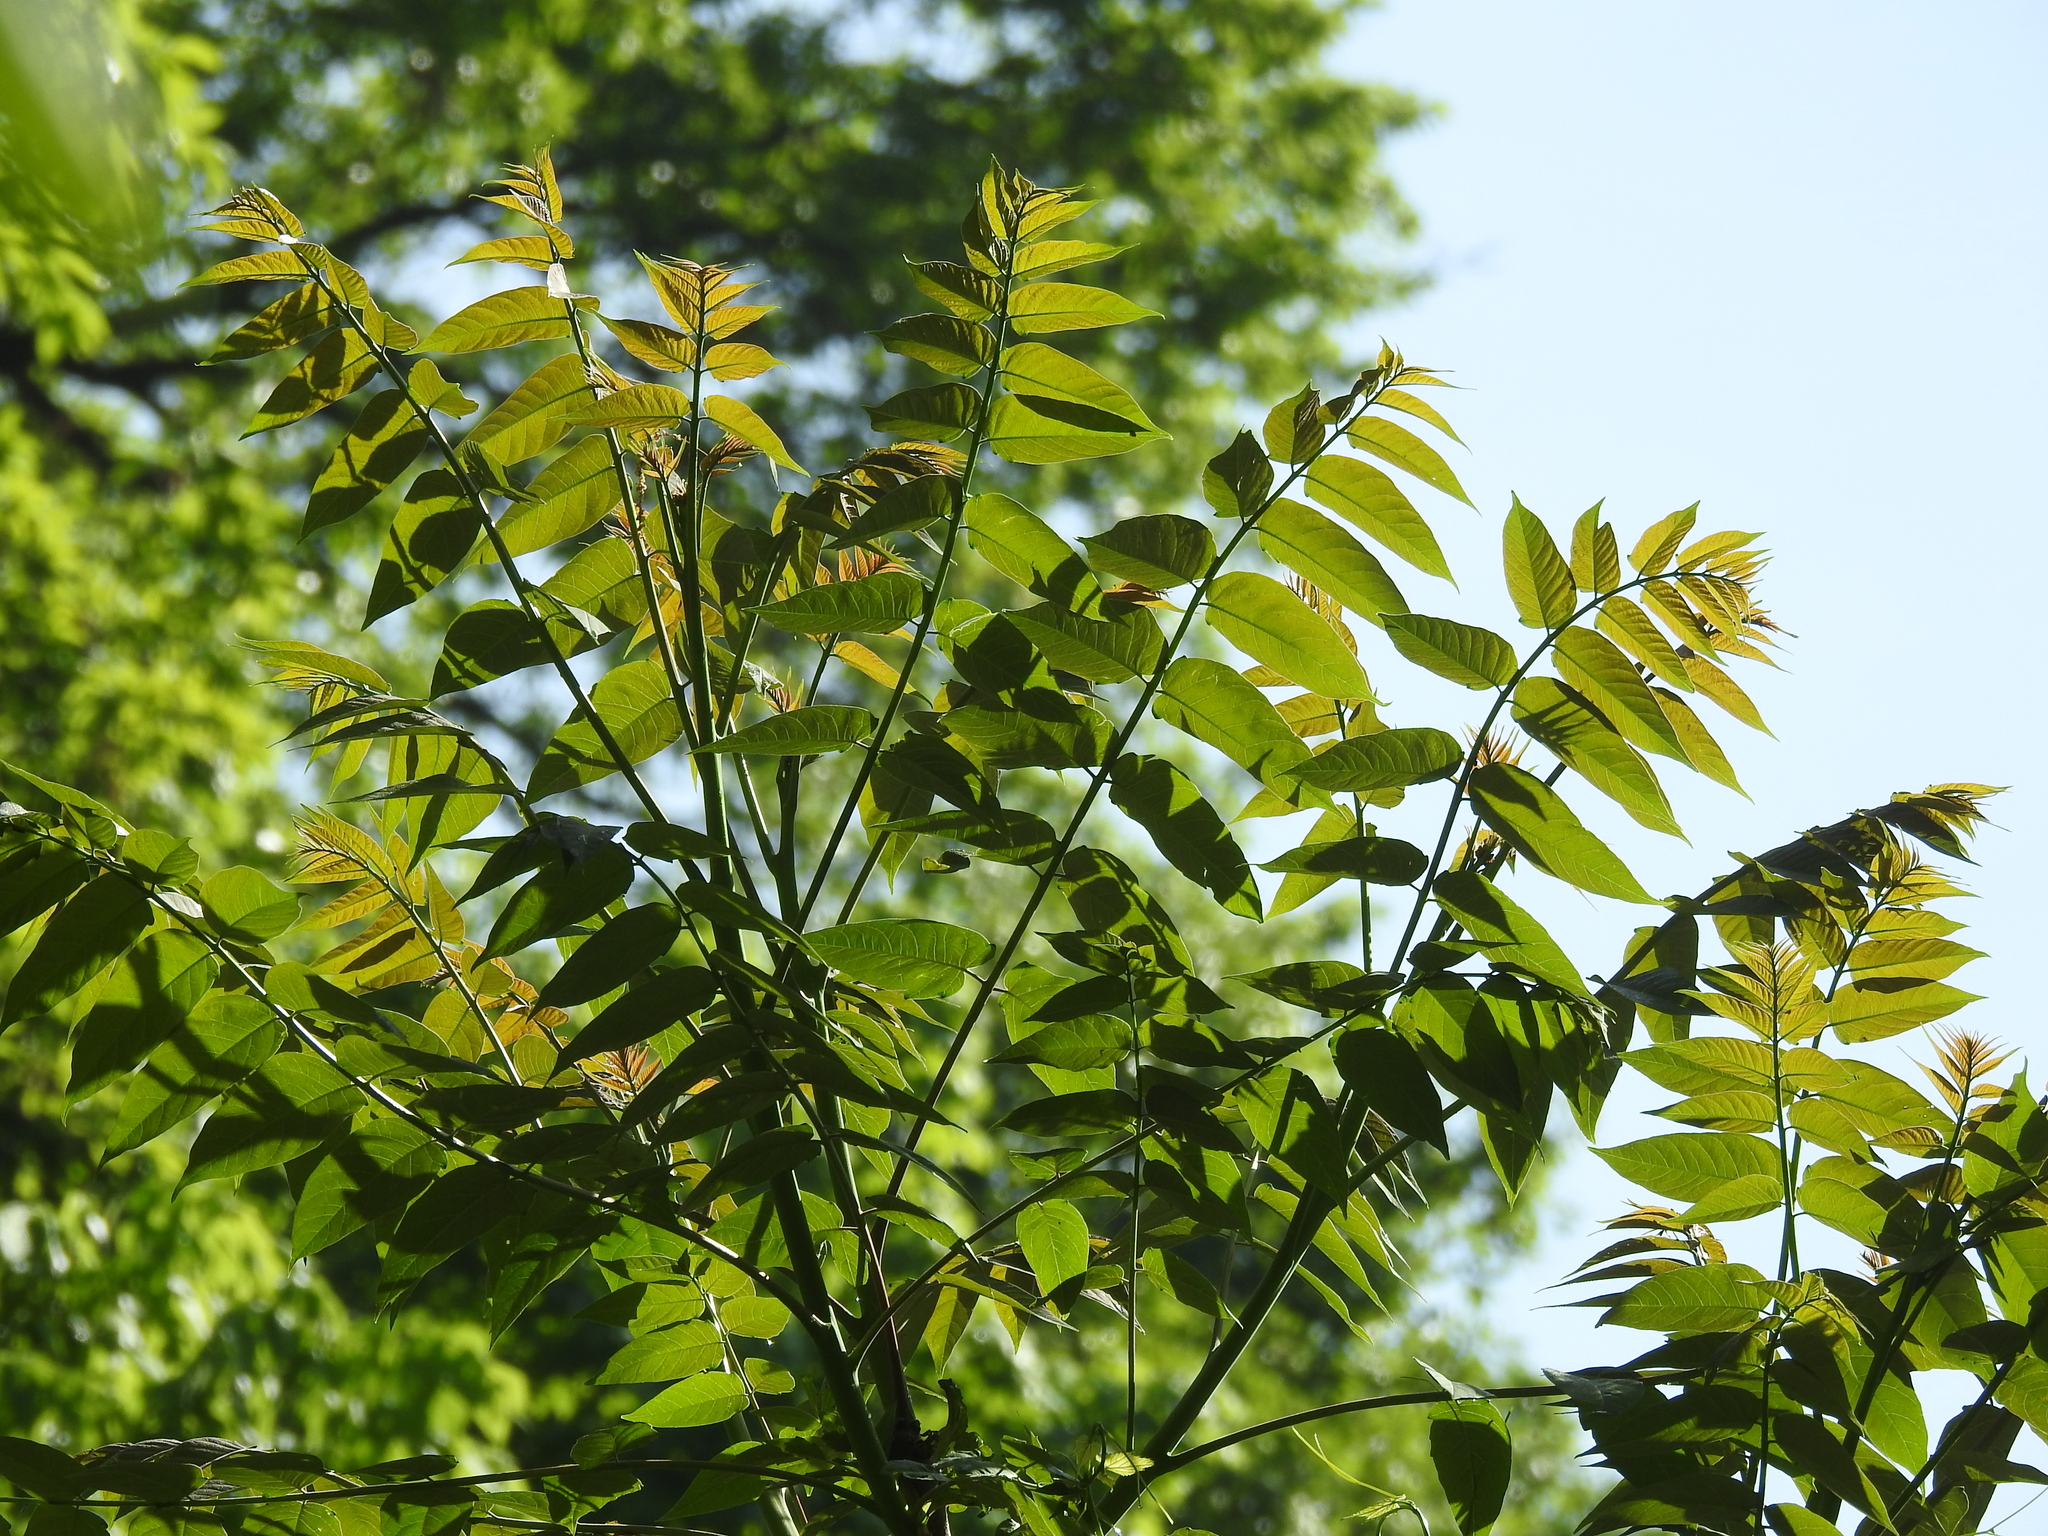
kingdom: Plantae
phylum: Tracheophyta
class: Magnoliopsida
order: Sapindales
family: Simaroubaceae
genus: Ailanthus
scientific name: Ailanthus altissima
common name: Tree-of-heaven
